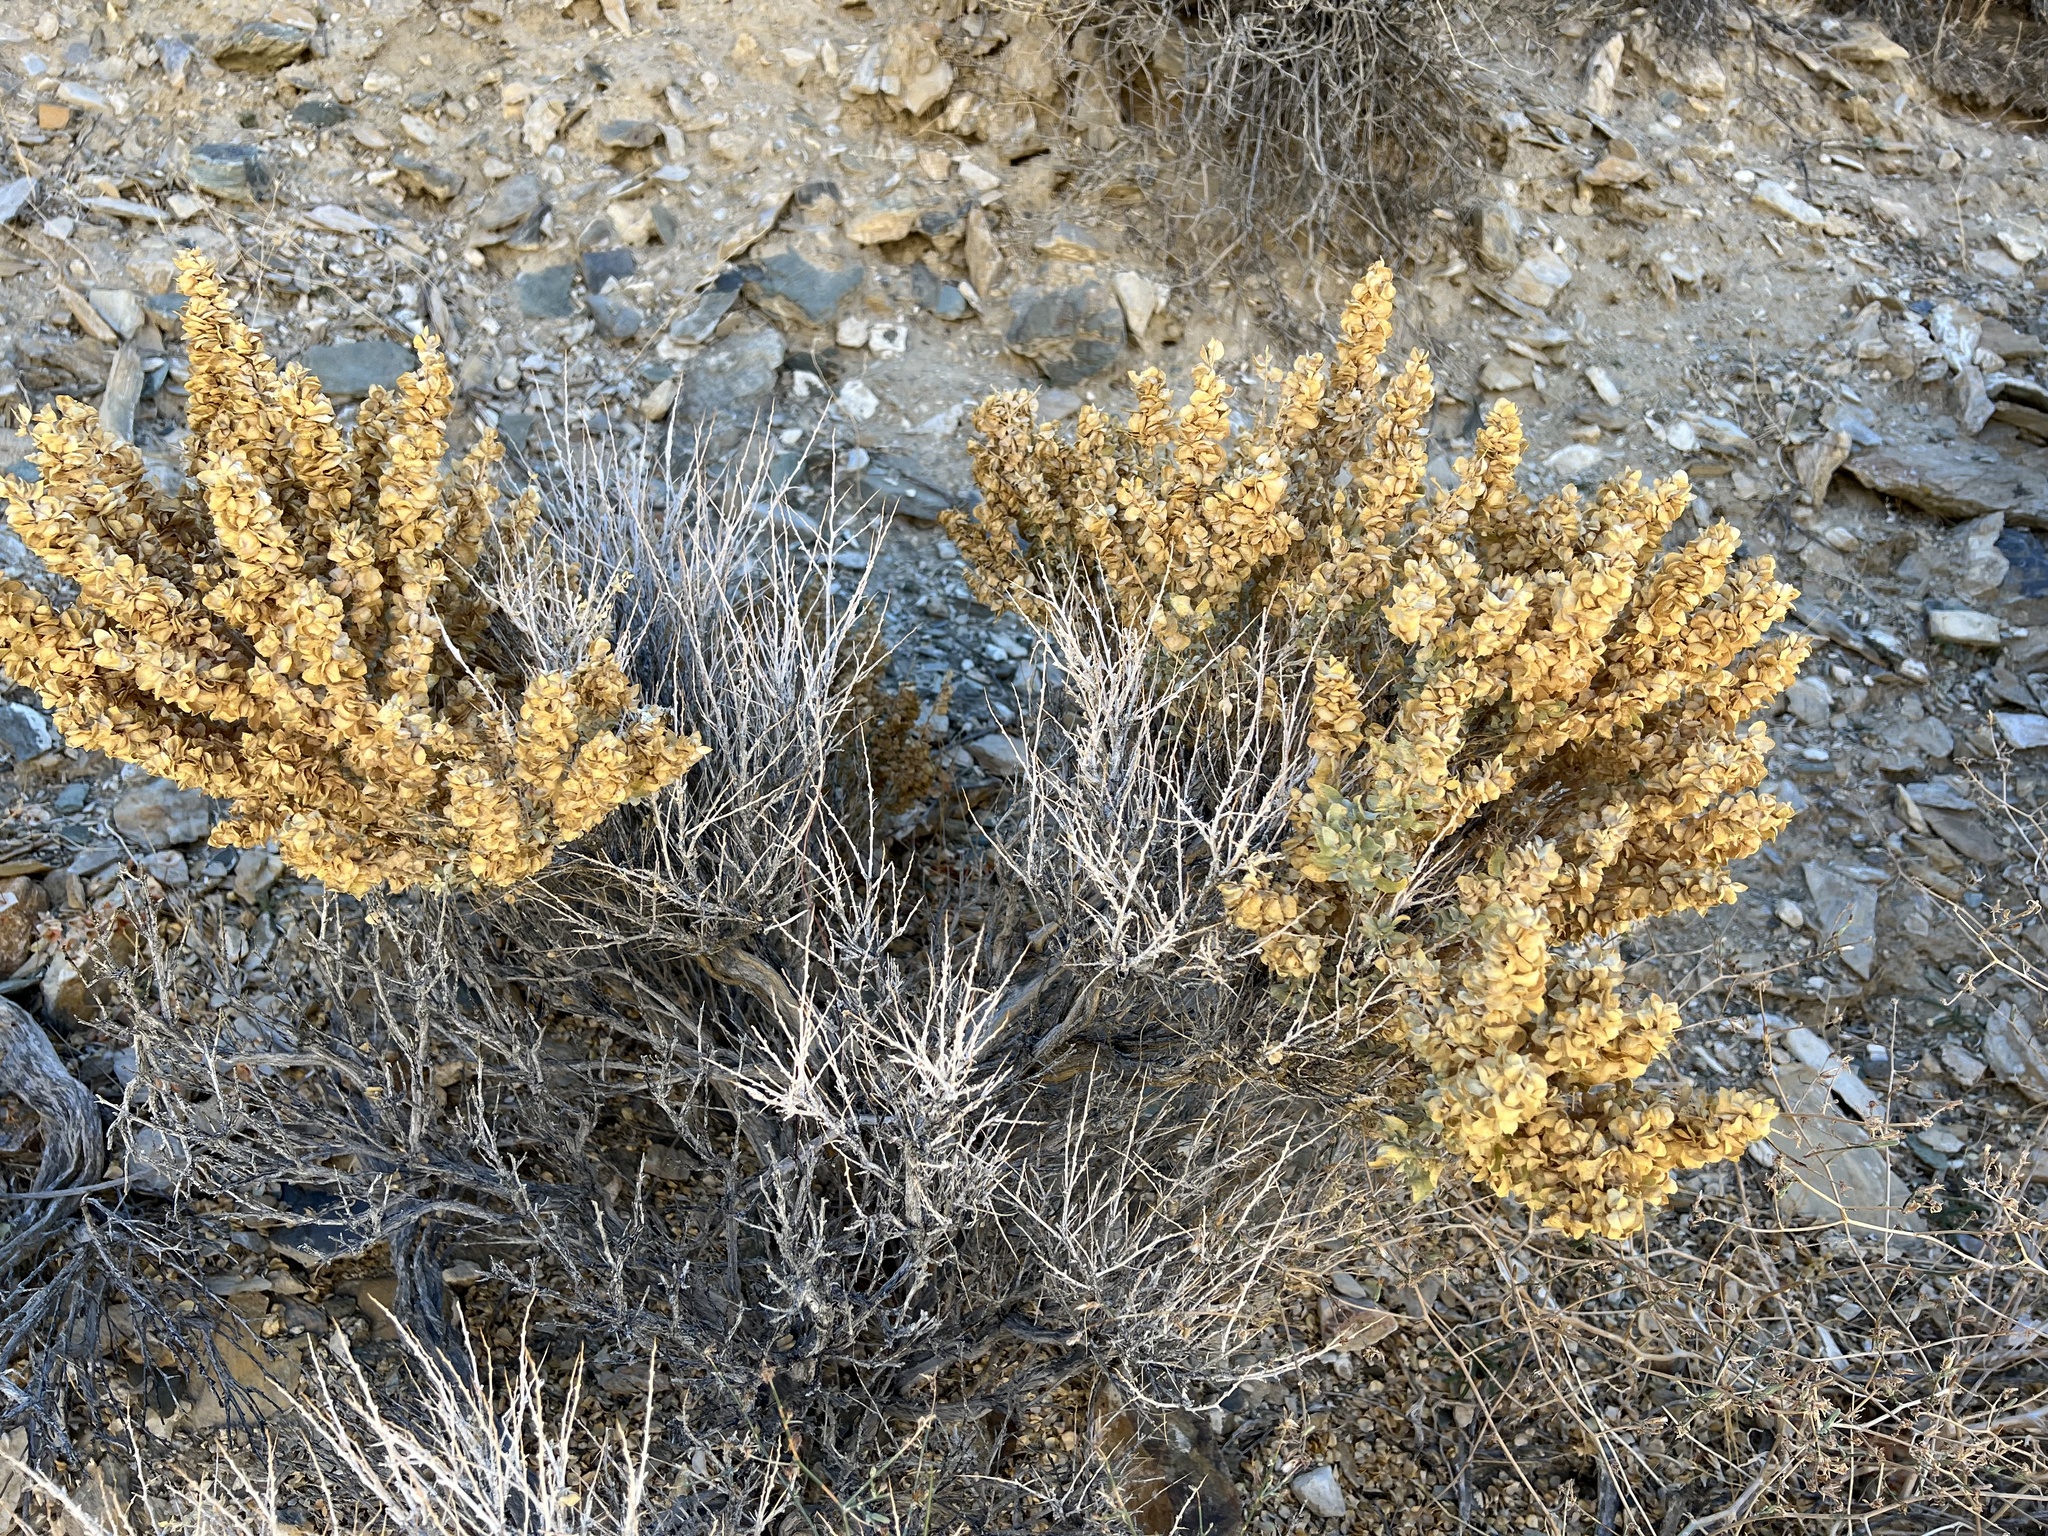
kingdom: Plantae
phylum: Tracheophyta
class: Magnoliopsida
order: Caryophyllales
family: Amaranthaceae
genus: Atriplex
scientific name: Atriplex confertifolia
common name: Shadscale
